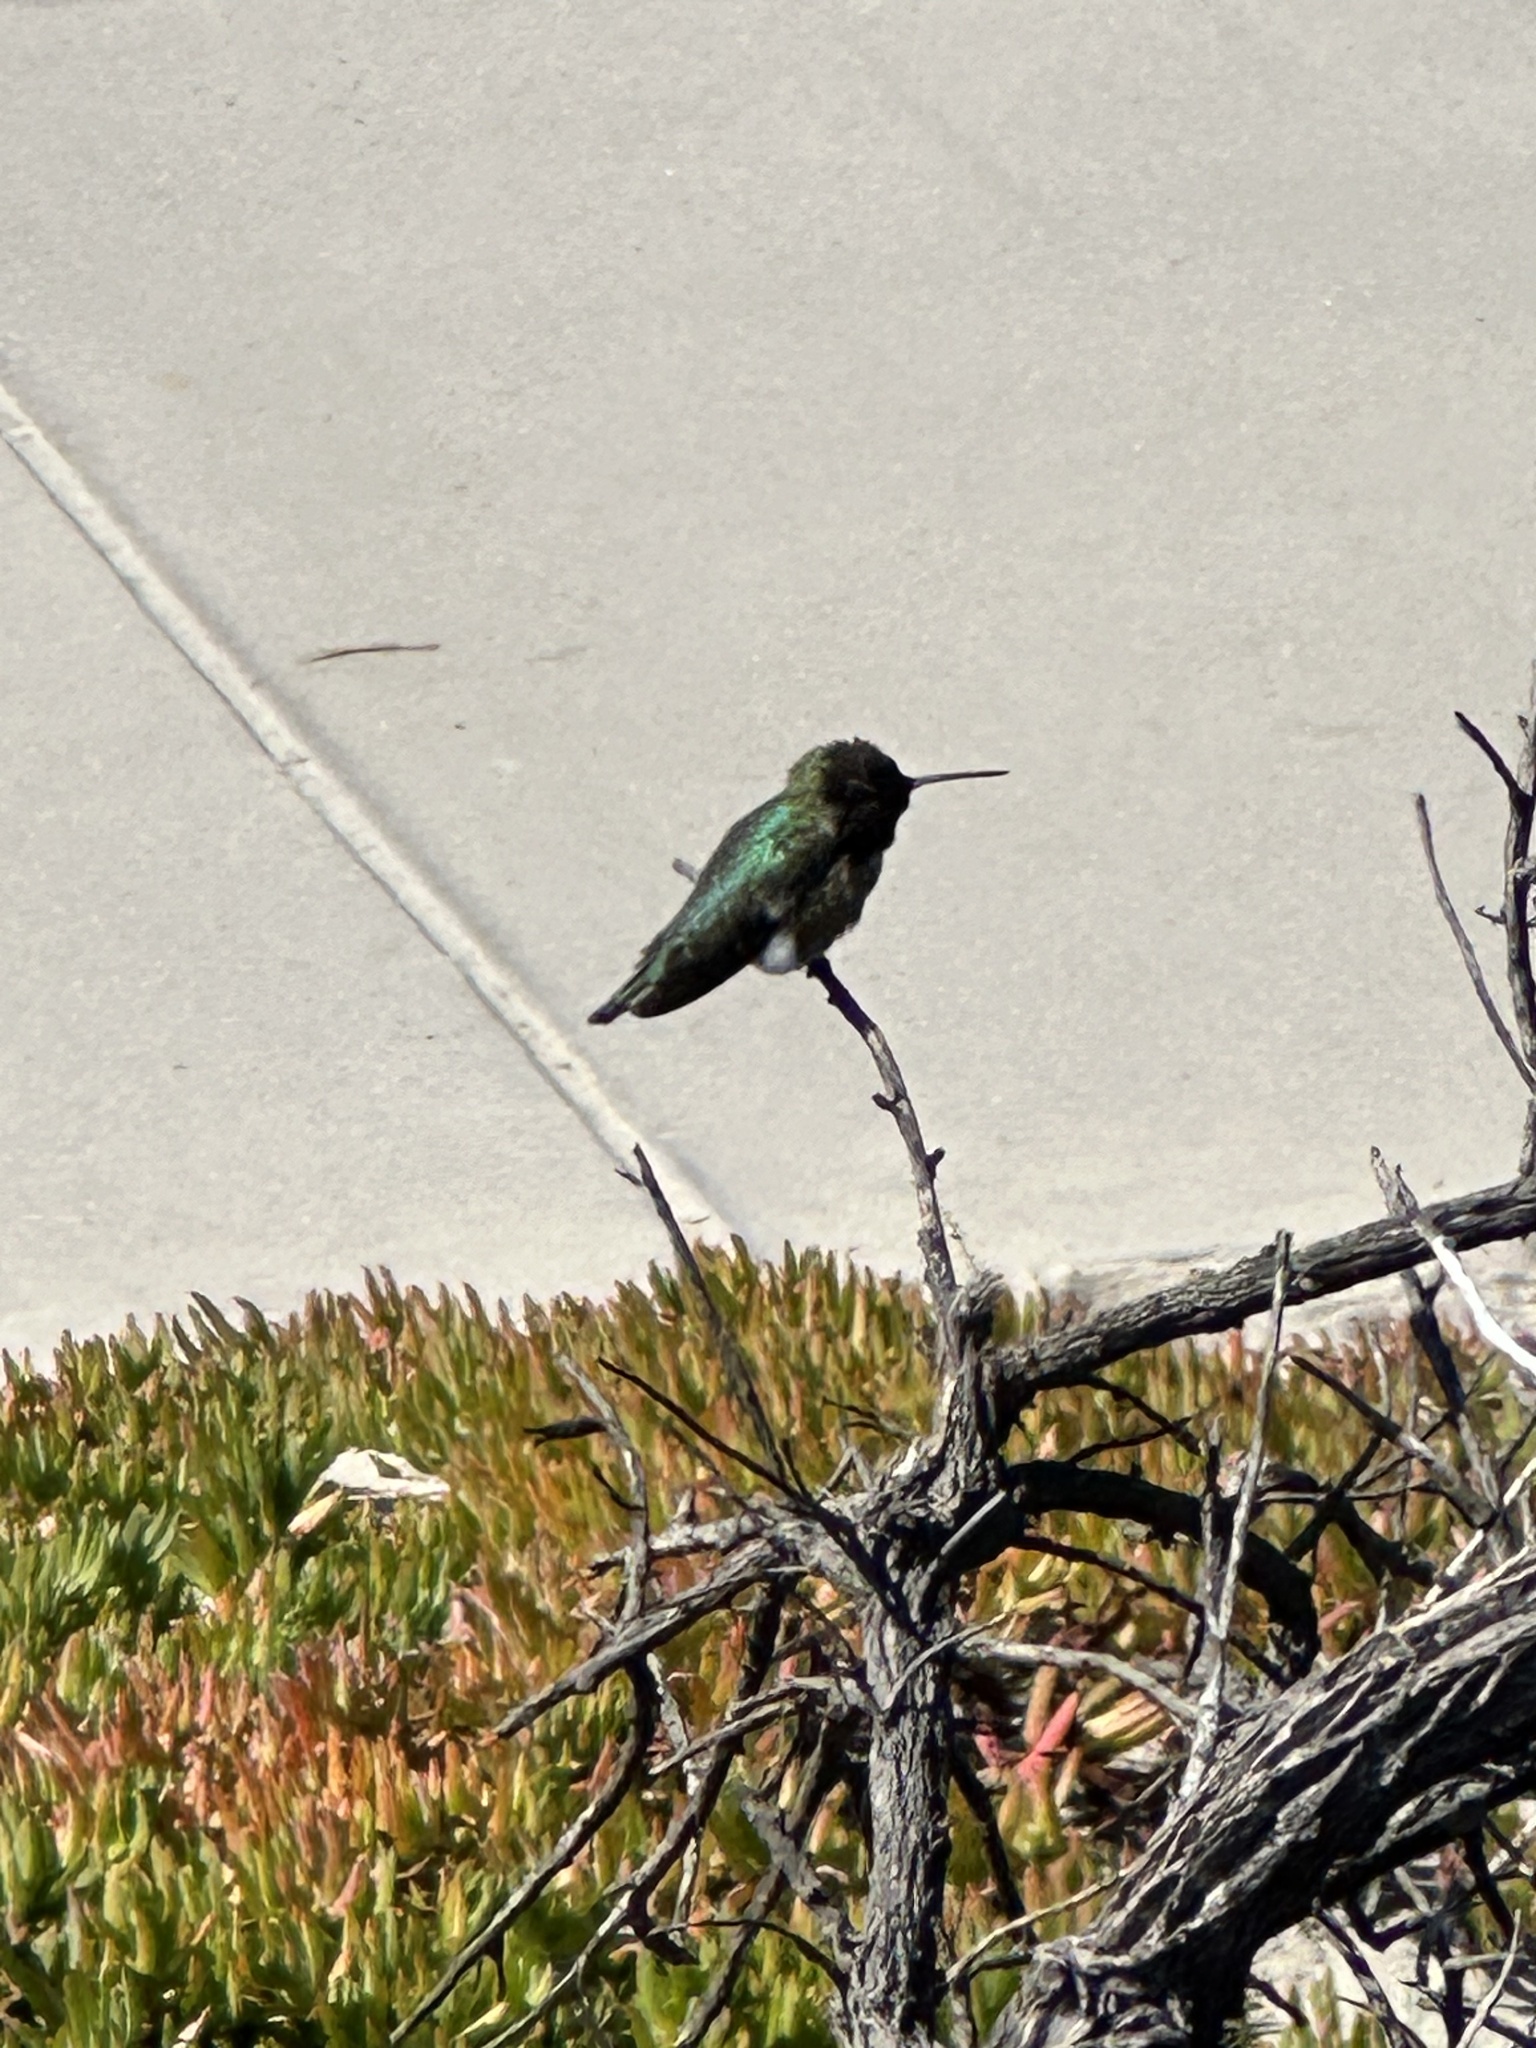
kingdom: Animalia
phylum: Chordata
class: Aves
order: Apodiformes
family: Trochilidae
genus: Calypte
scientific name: Calypte anna
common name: Anna's hummingbird
